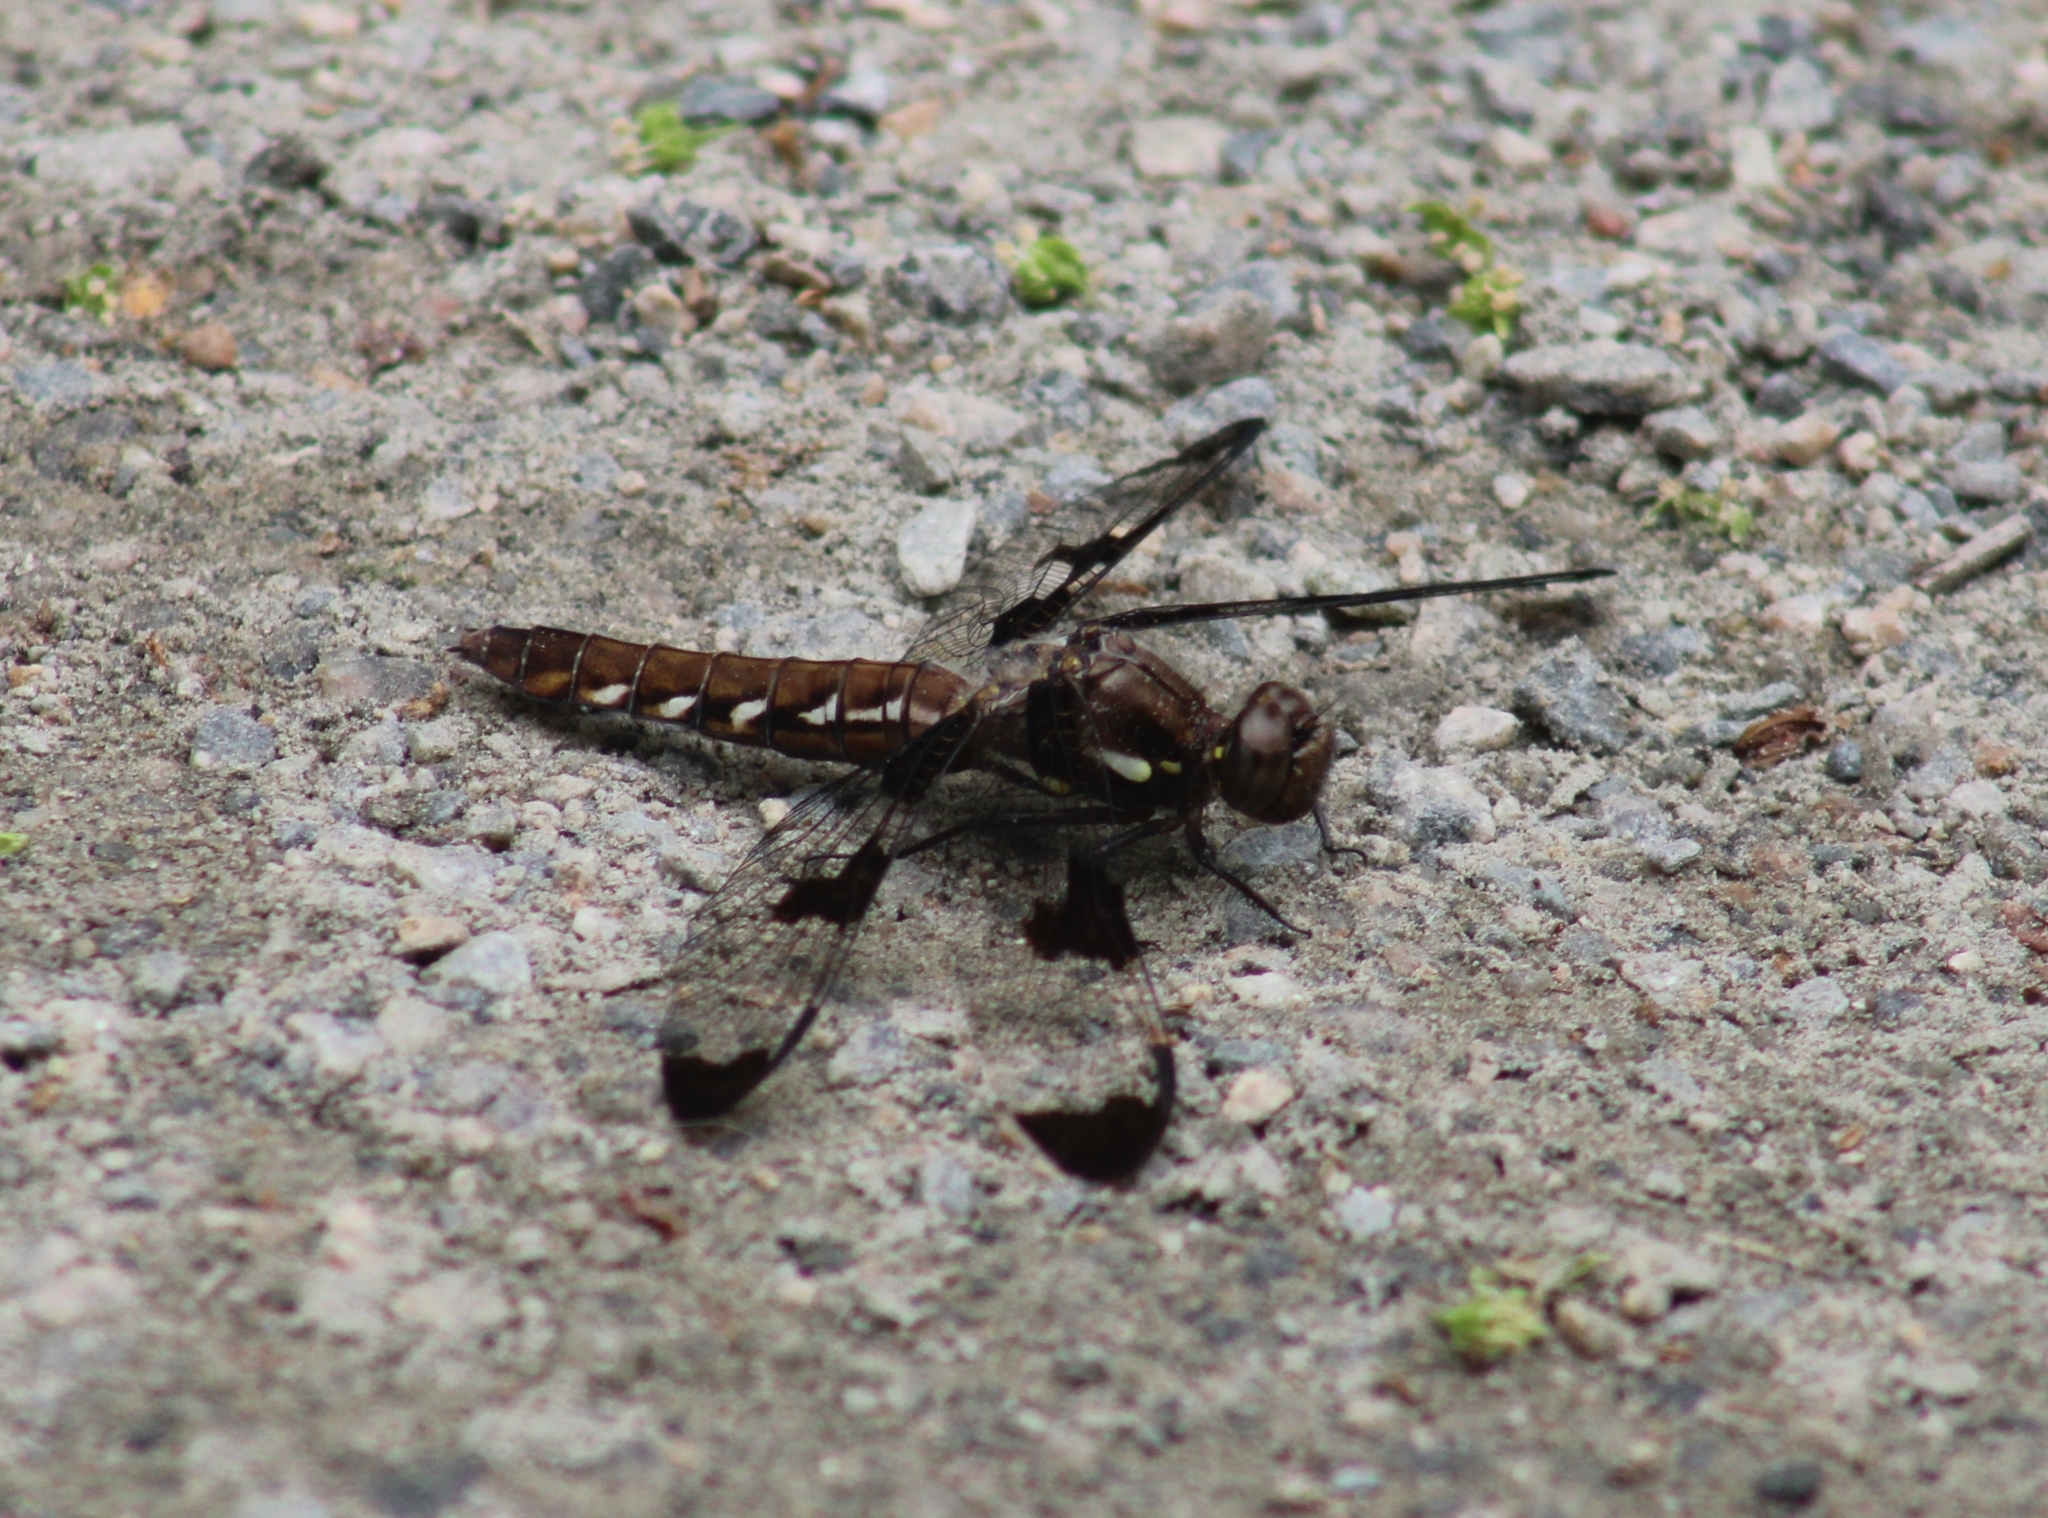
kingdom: Animalia
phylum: Arthropoda
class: Insecta
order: Odonata
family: Libellulidae
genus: Plathemis
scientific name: Plathemis lydia
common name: Common whitetail
